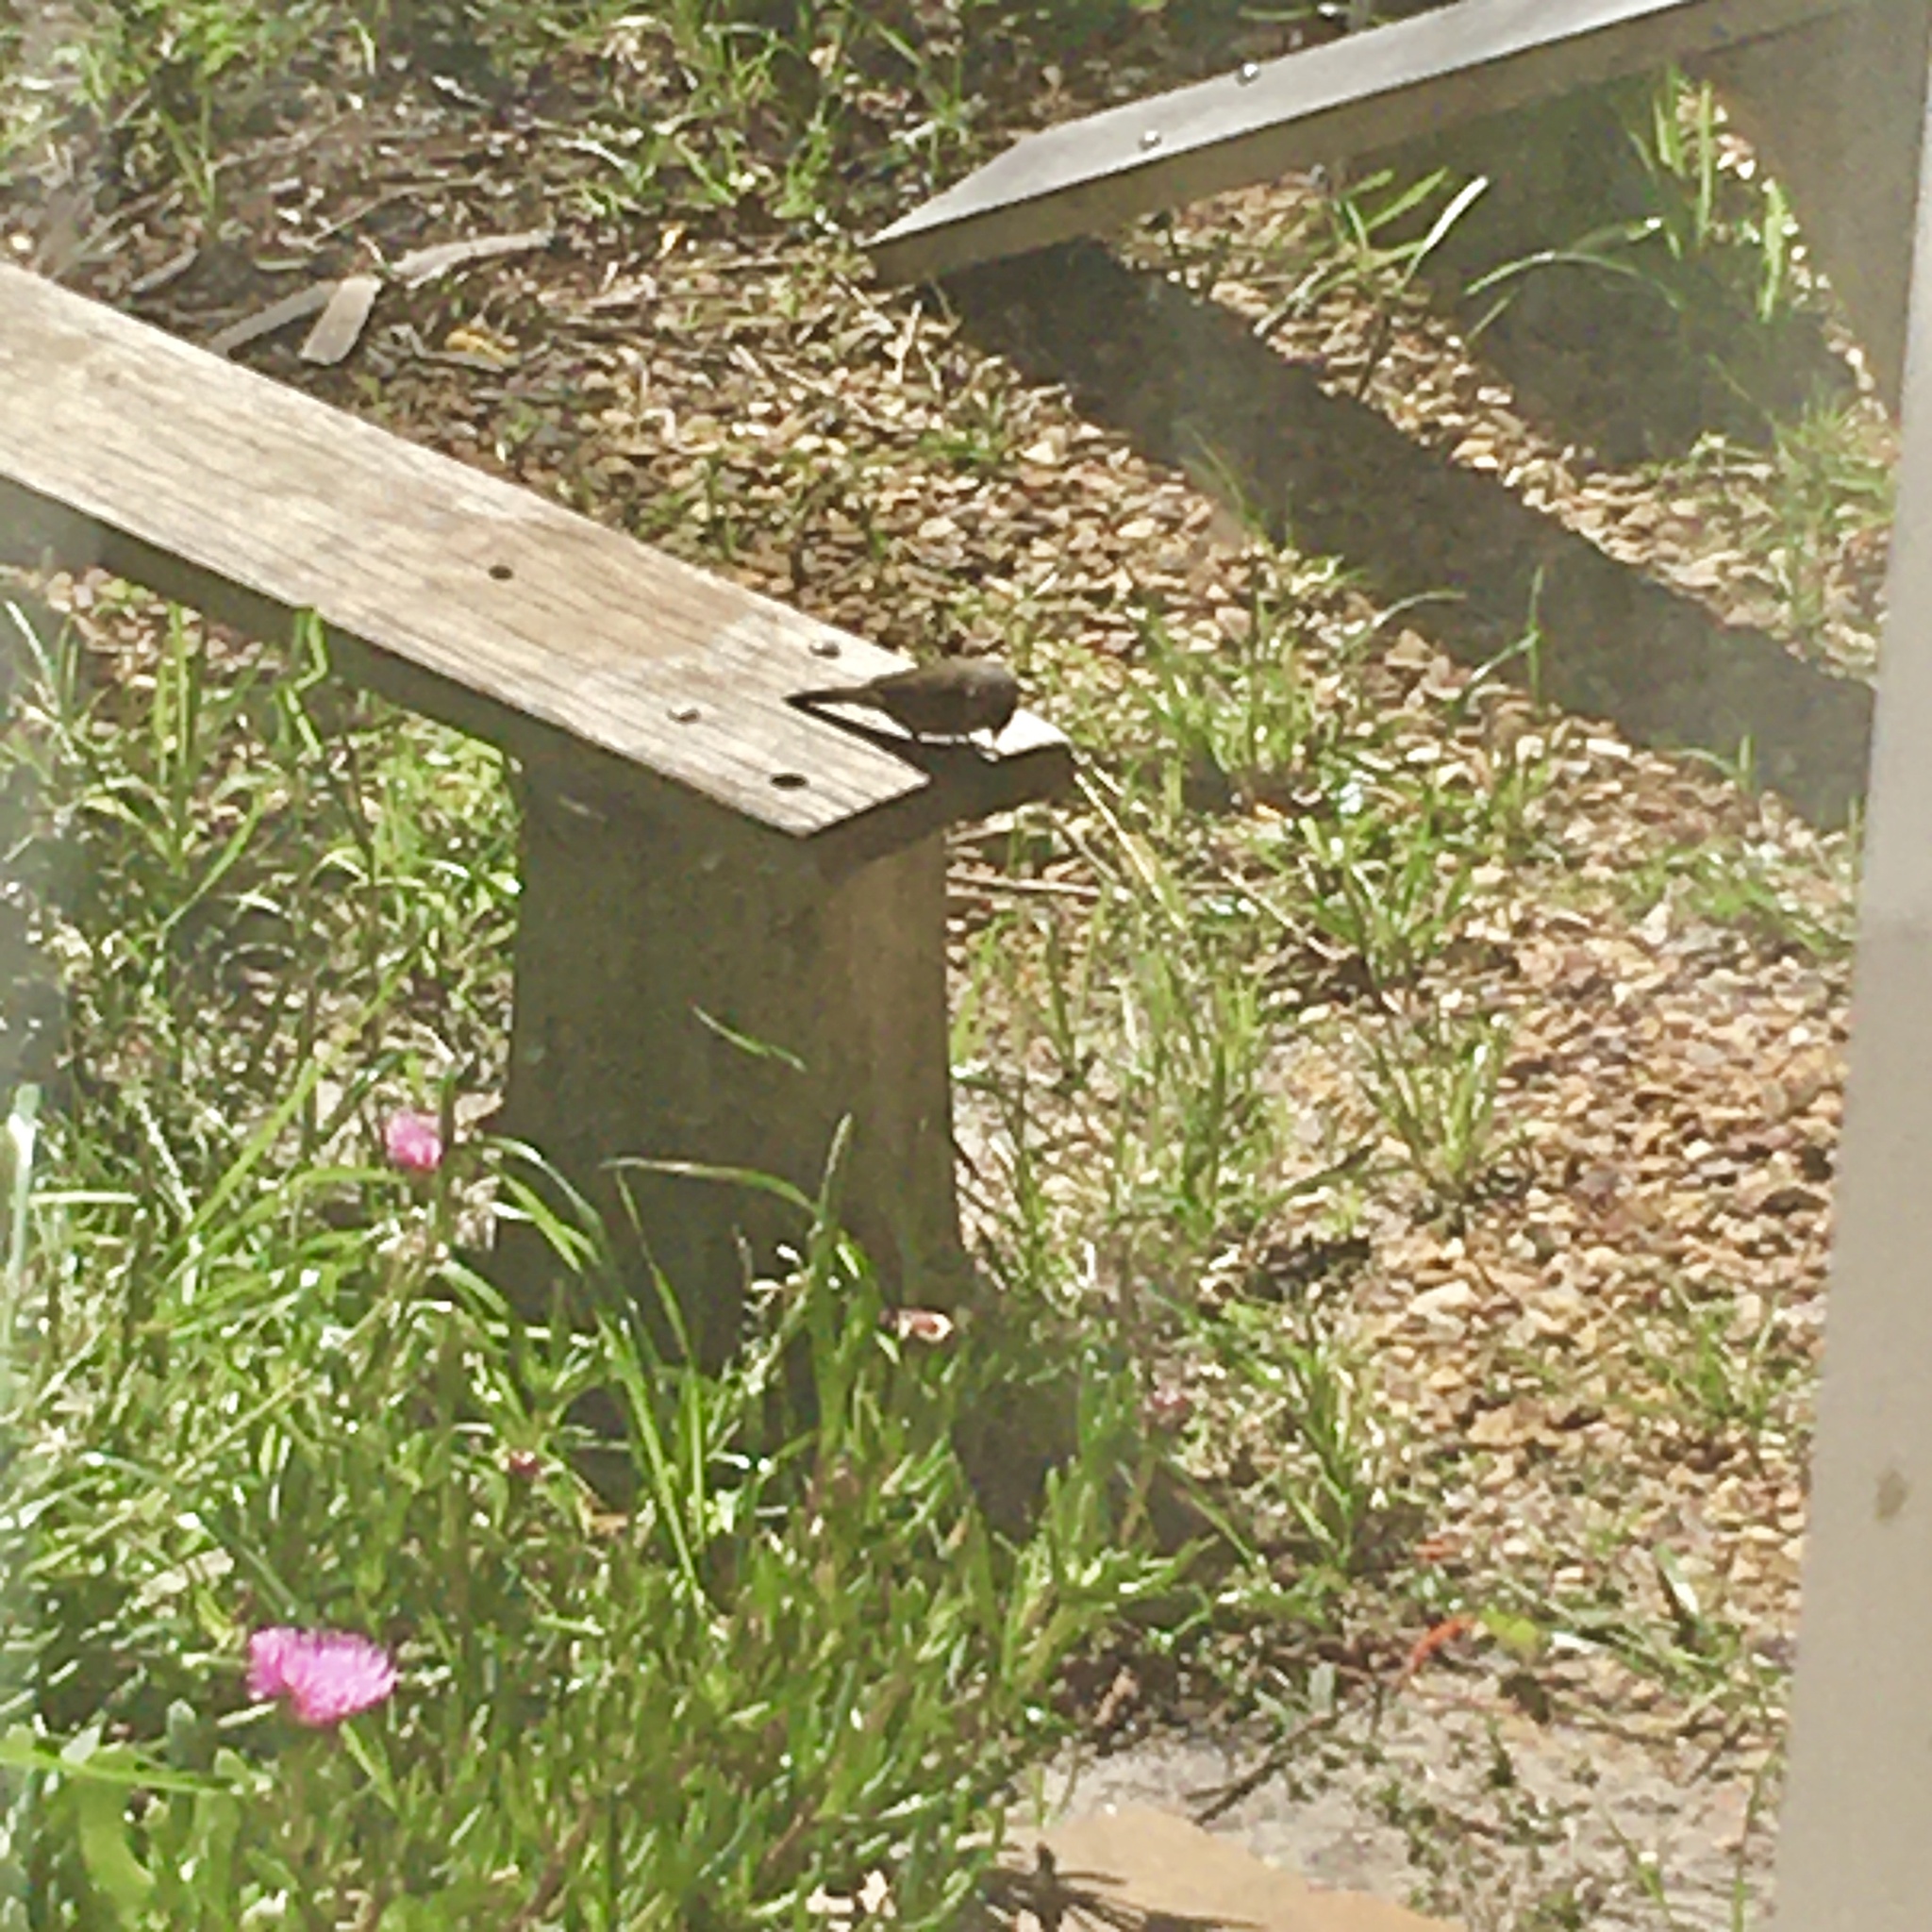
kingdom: Animalia
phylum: Chordata
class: Aves
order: Passeriformes
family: Estrildidae
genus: Estrilda
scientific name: Estrilda astrild
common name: Common waxbill
